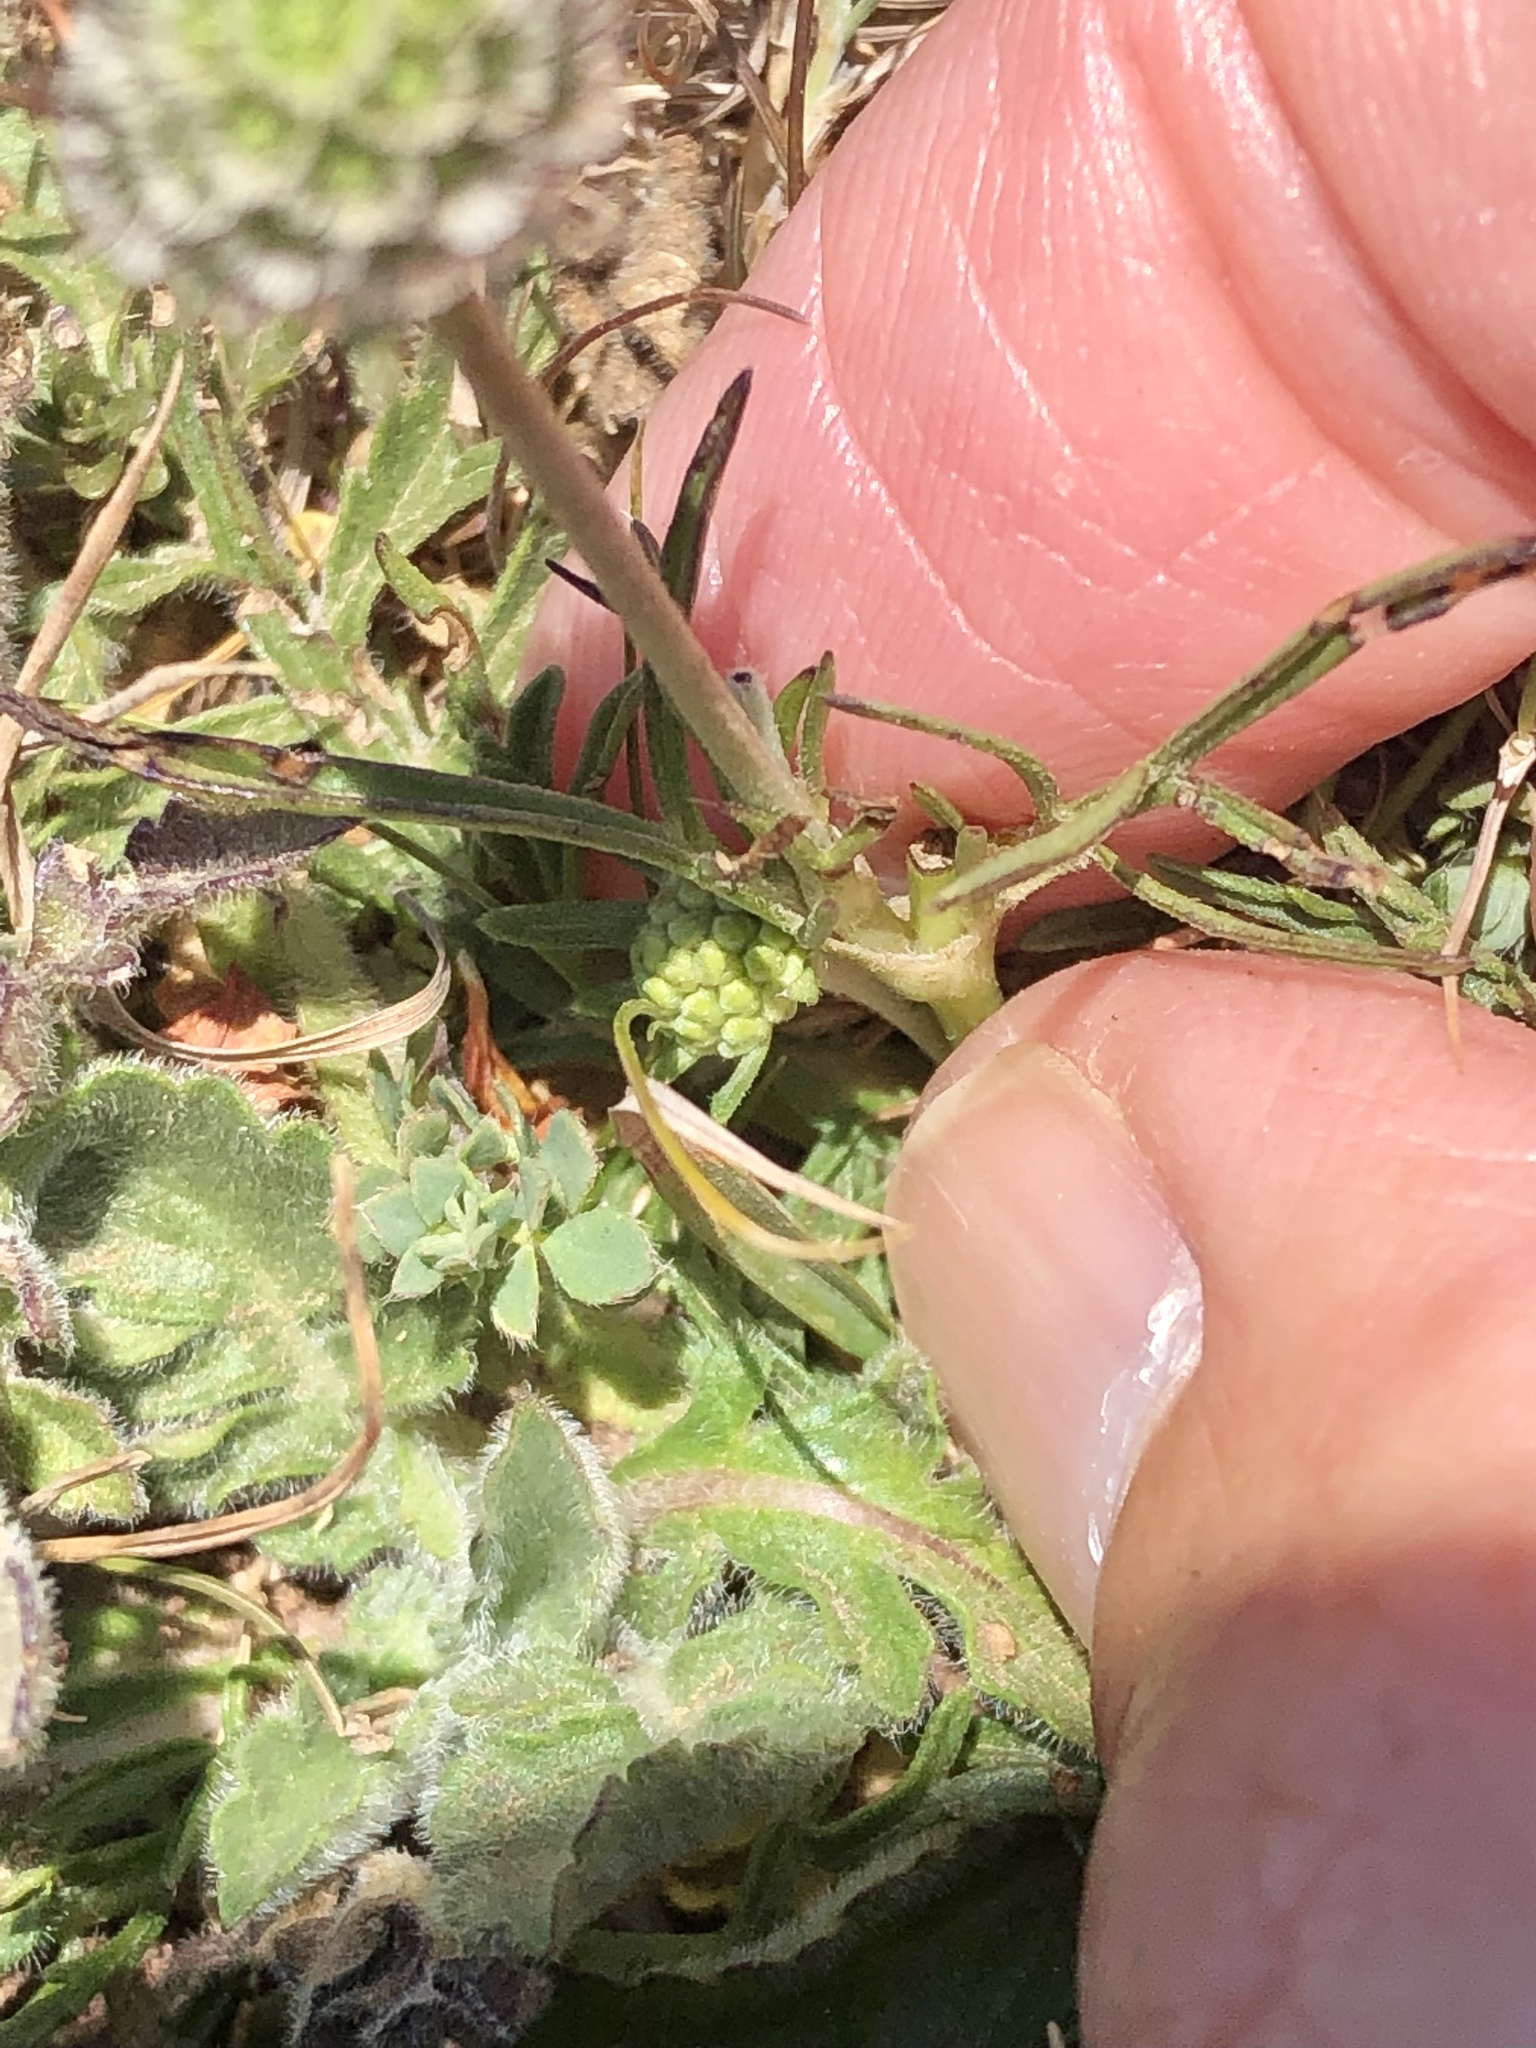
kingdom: Plantae
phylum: Tracheophyta
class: Magnoliopsida
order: Dipsacales
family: Caprifoliaceae
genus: Scabiosa
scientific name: Scabiosa columbaria
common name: Small scabious
